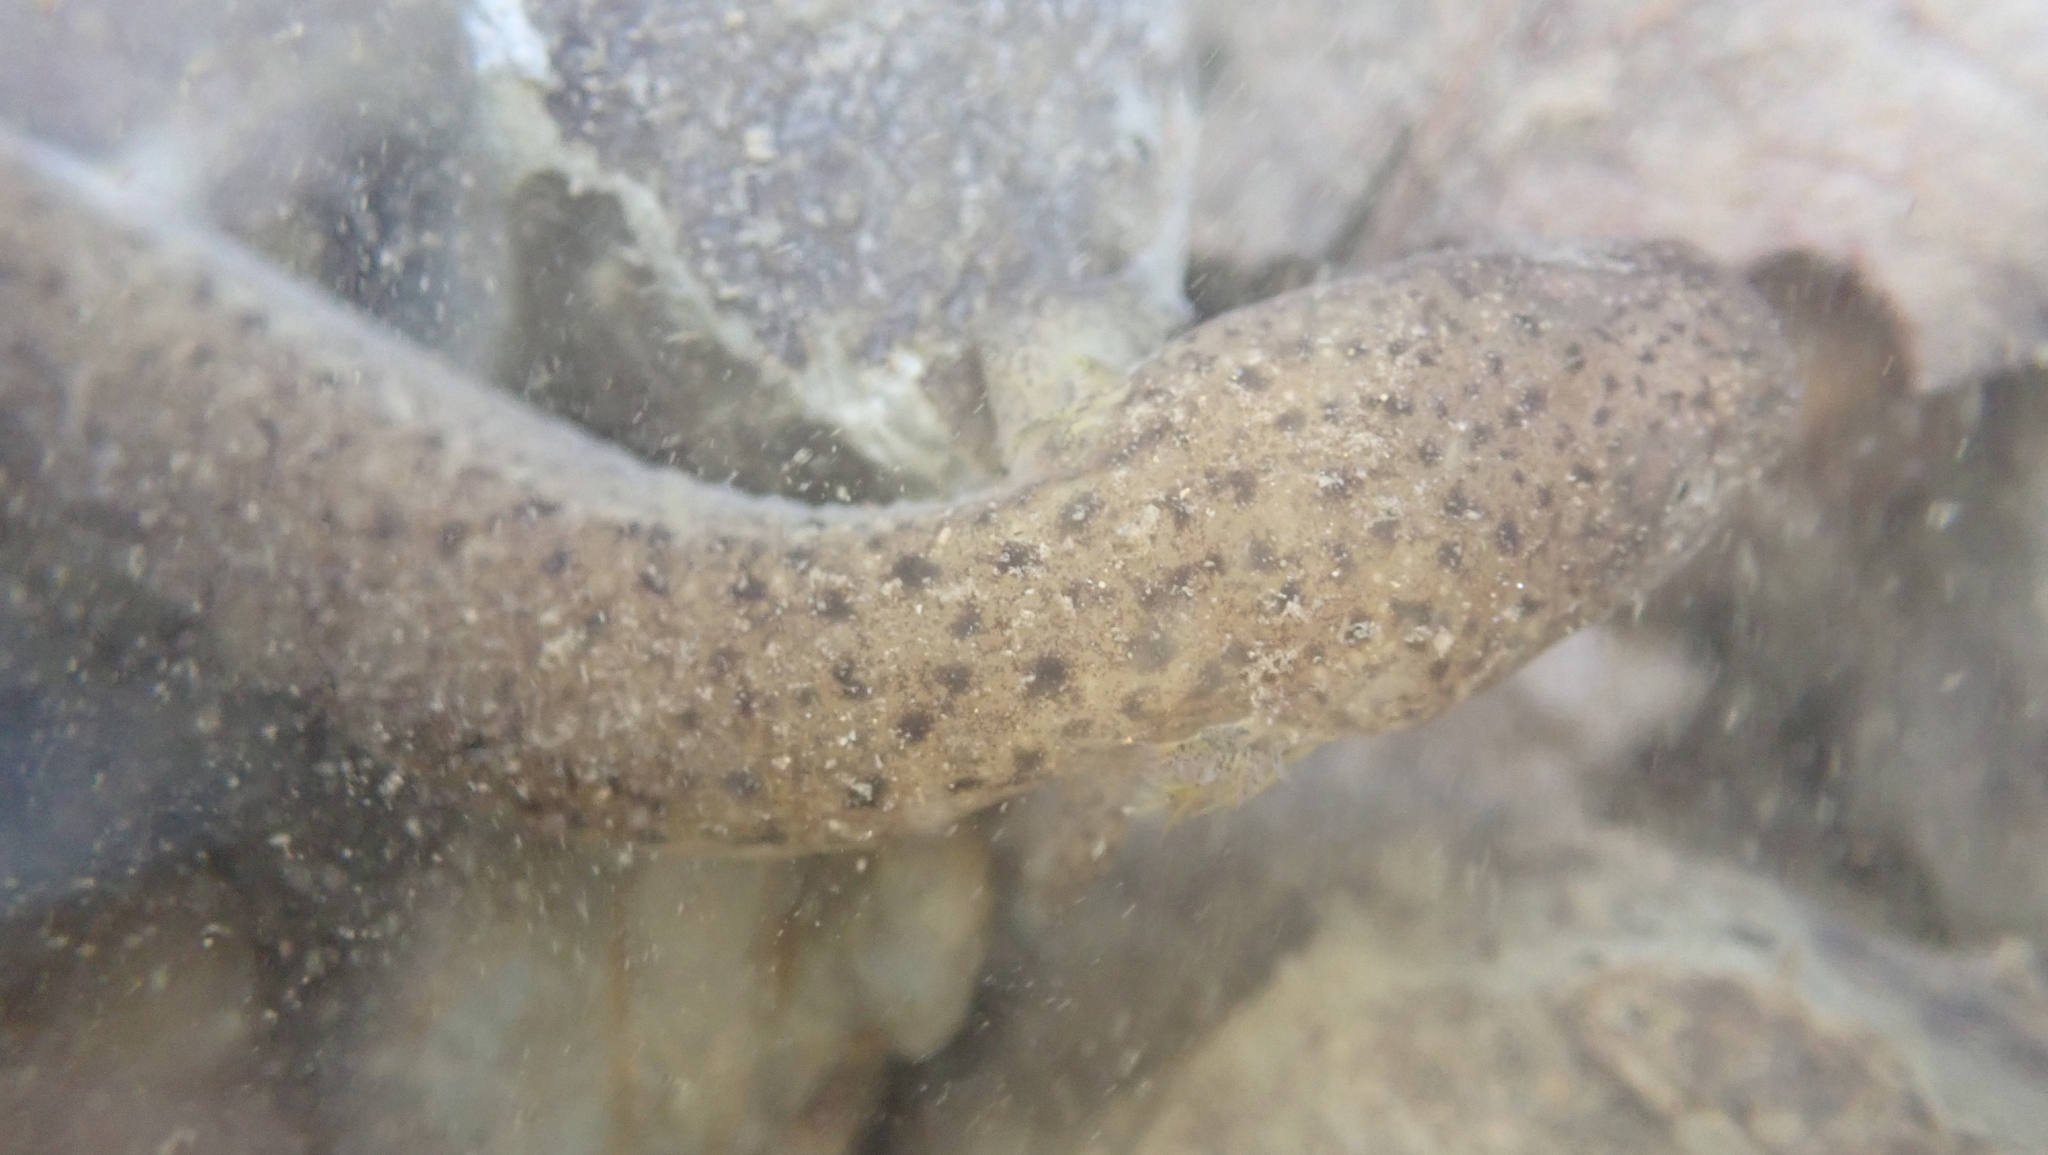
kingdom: Animalia
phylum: Chordata
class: Amphibia
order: Caudata
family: Plethodontidae
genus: Pseudotriton
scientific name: Pseudotriton ruber
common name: Red salamander
